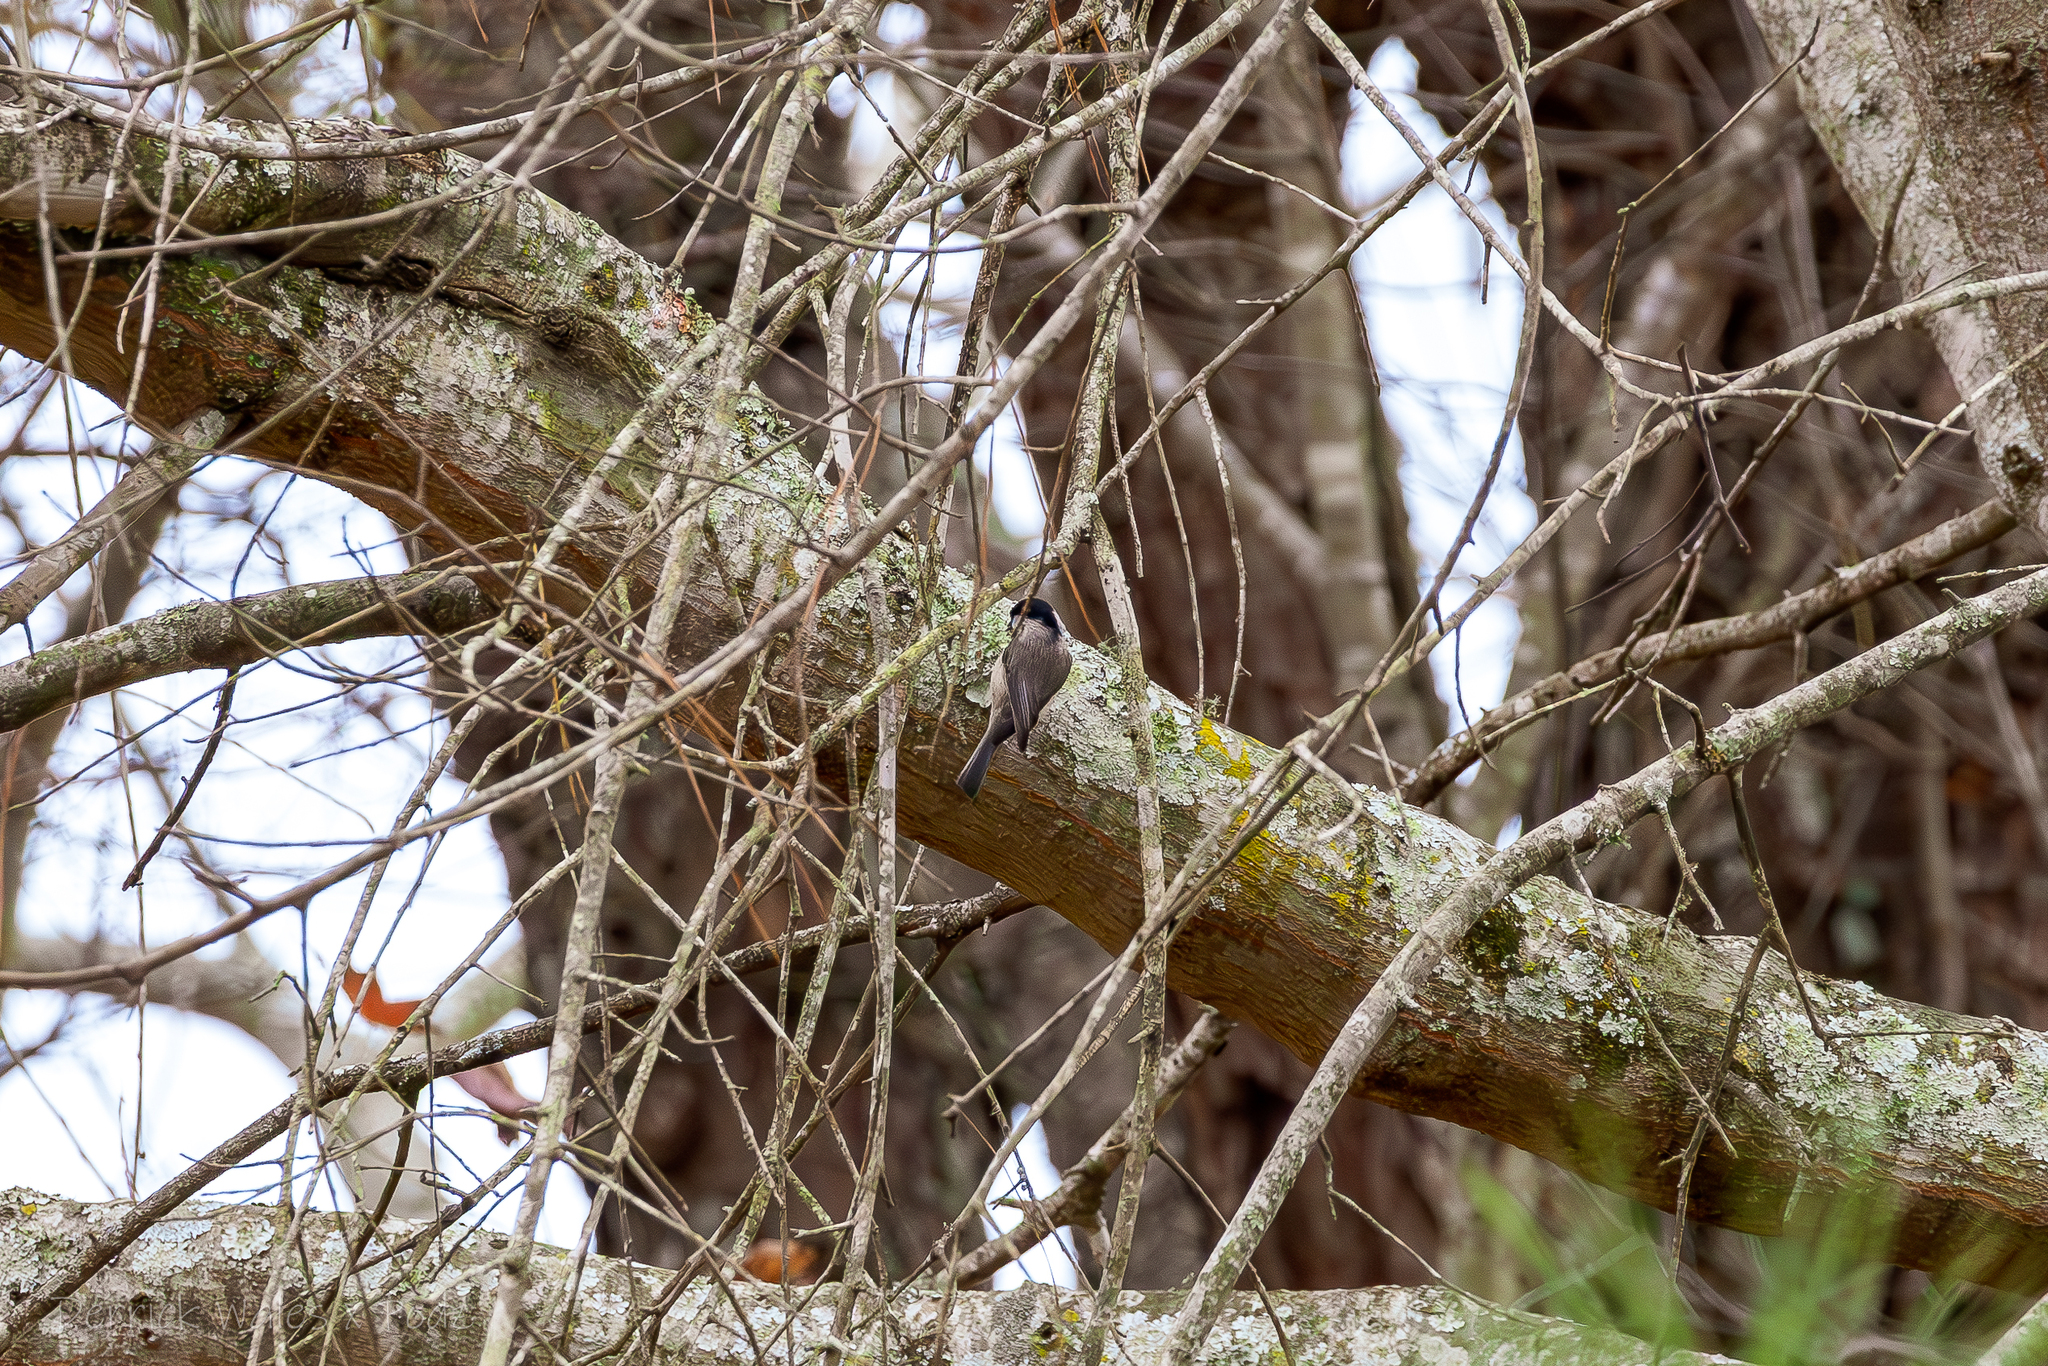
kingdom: Animalia
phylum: Chordata
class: Aves
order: Passeriformes
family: Paridae
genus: Poecile
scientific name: Poecile carolinensis
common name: Carolina chickadee
